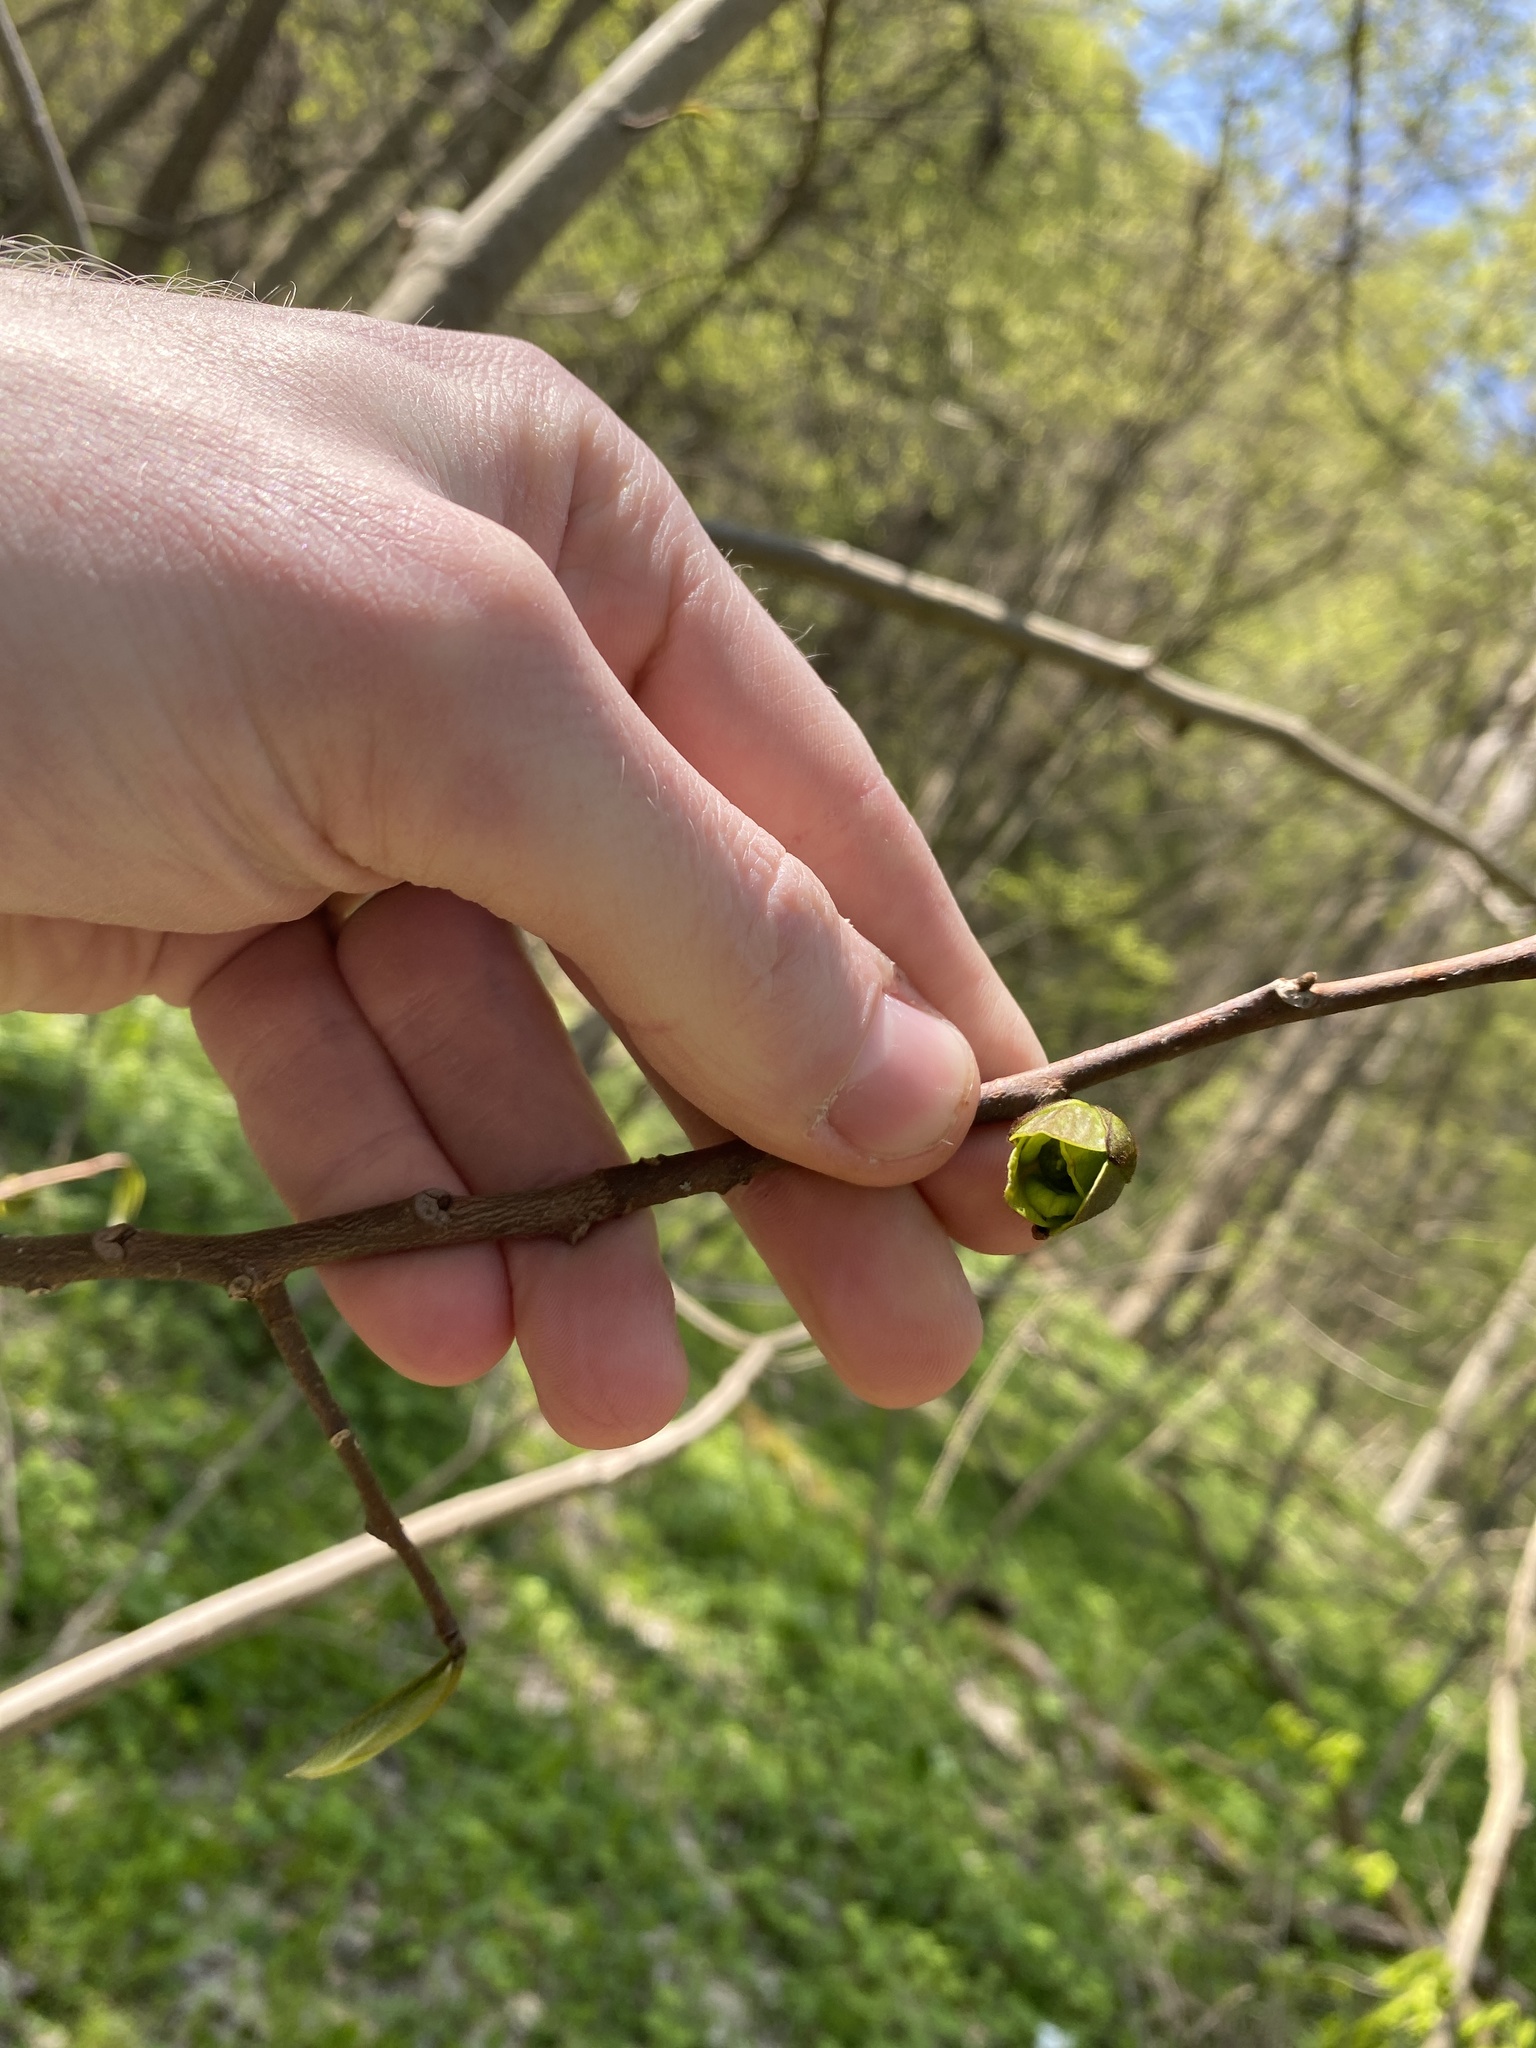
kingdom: Plantae
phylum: Tracheophyta
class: Magnoliopsida
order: Magnoliales
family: Annonaceae
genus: Asimina
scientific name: Asimina triloba
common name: Dog-banana
